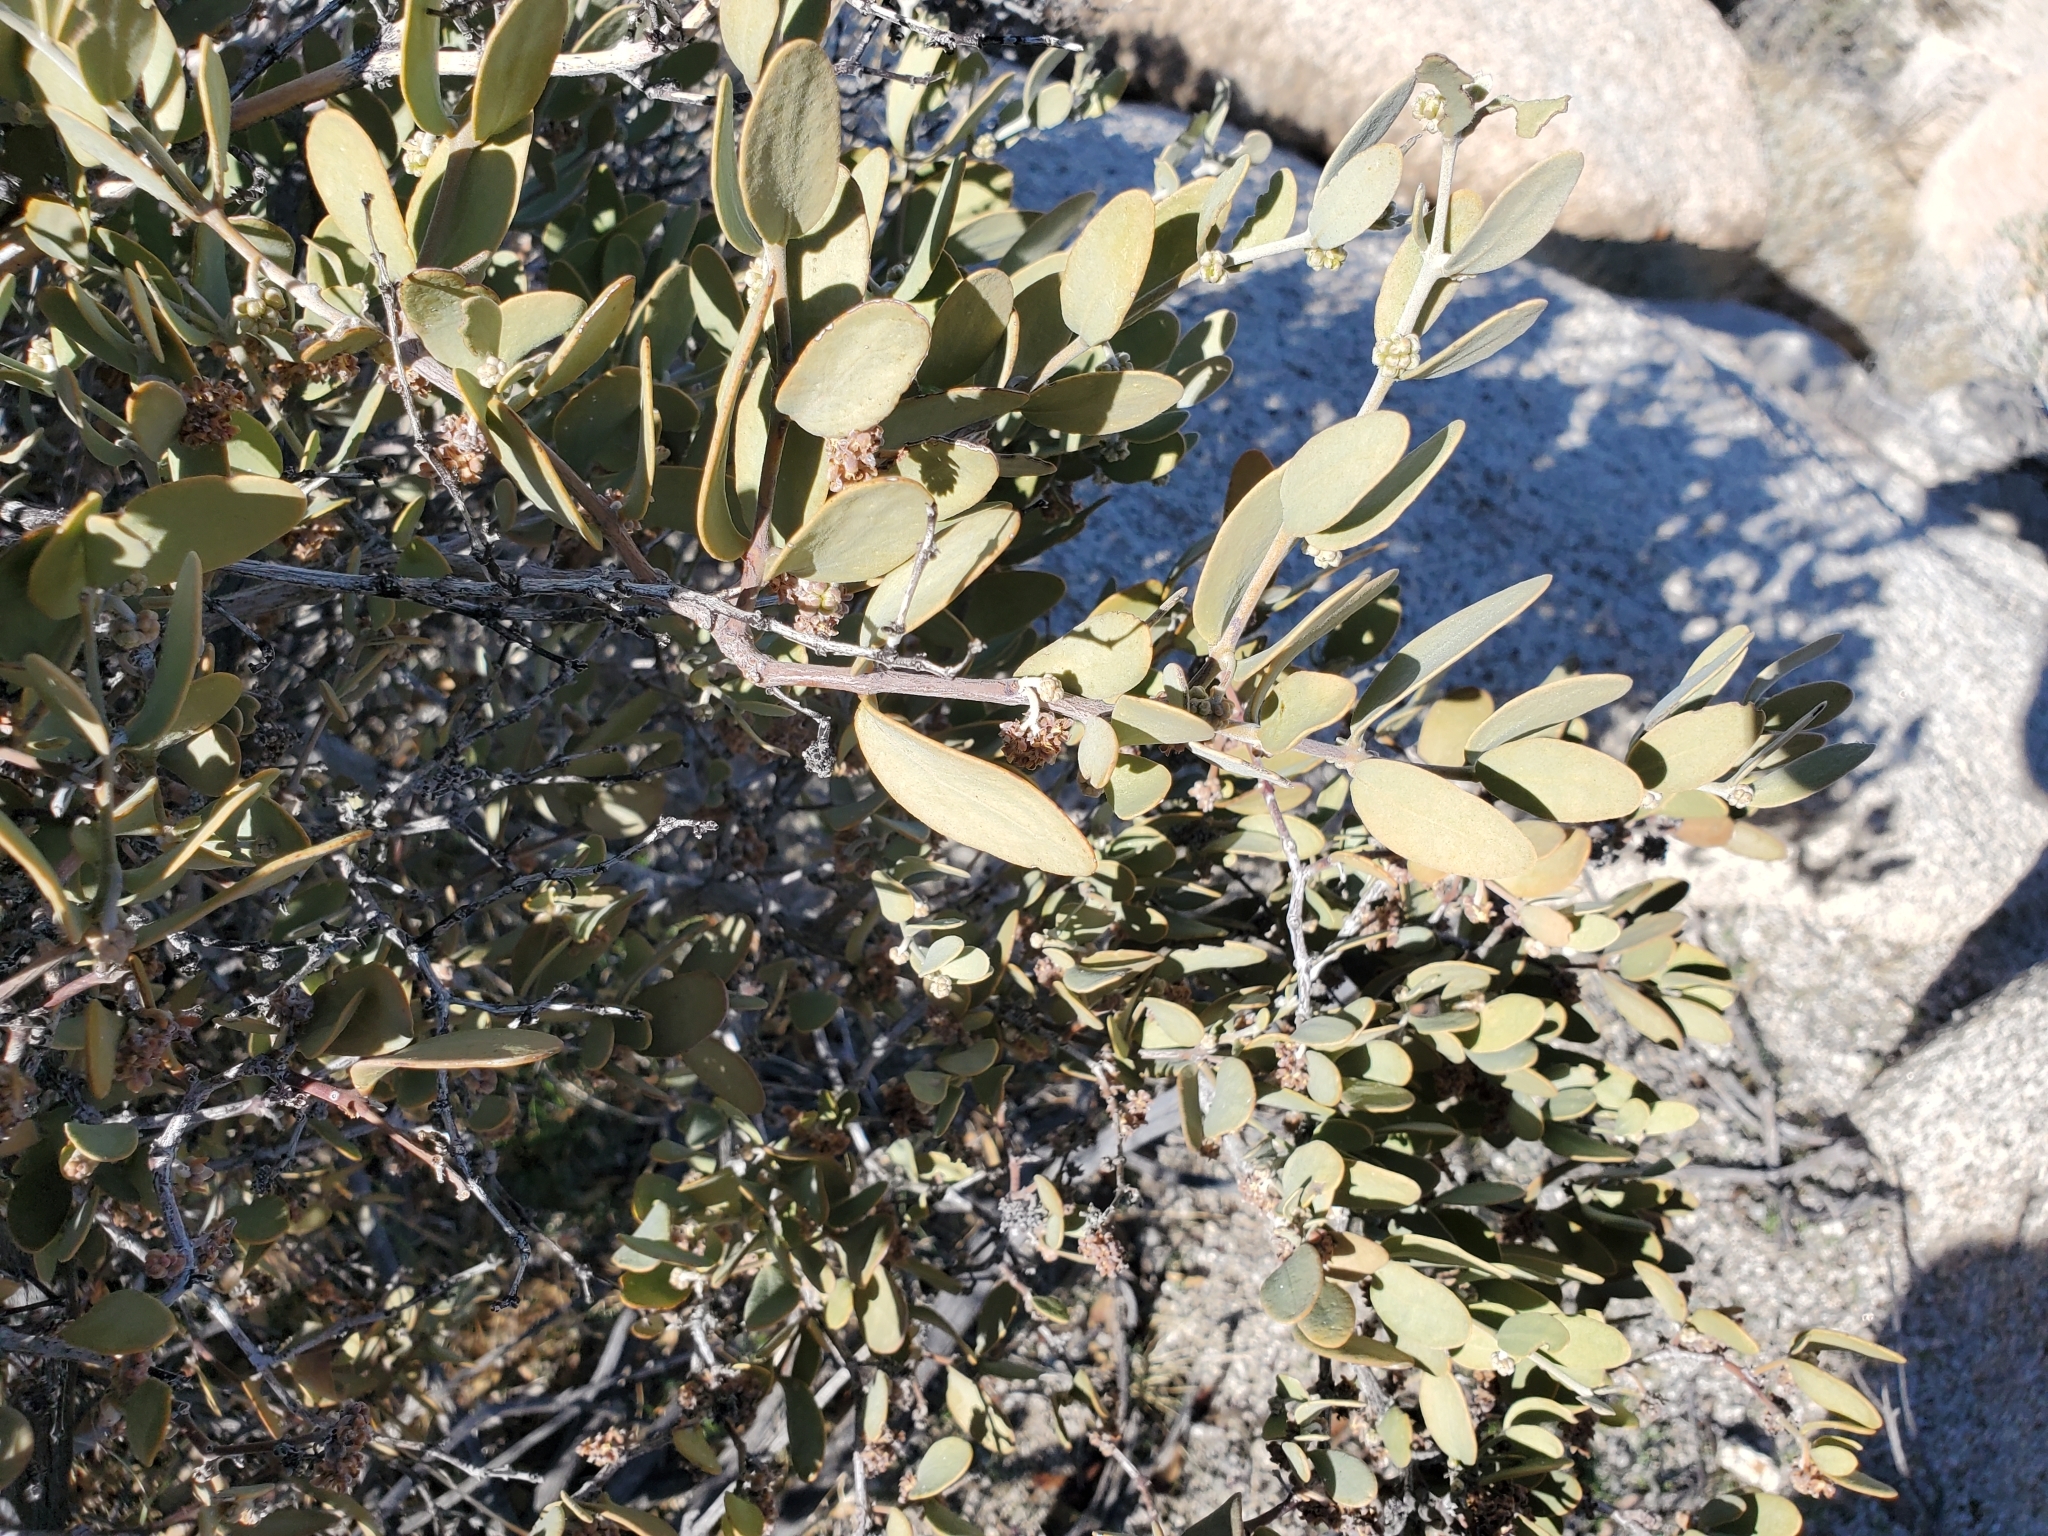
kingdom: Plantae
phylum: Tracheophyta
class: Magnoliopsida
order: Caryophyllales
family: Simmondsiaceae
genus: Simmondsia
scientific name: Simmondsia chinensis
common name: Jojoba
